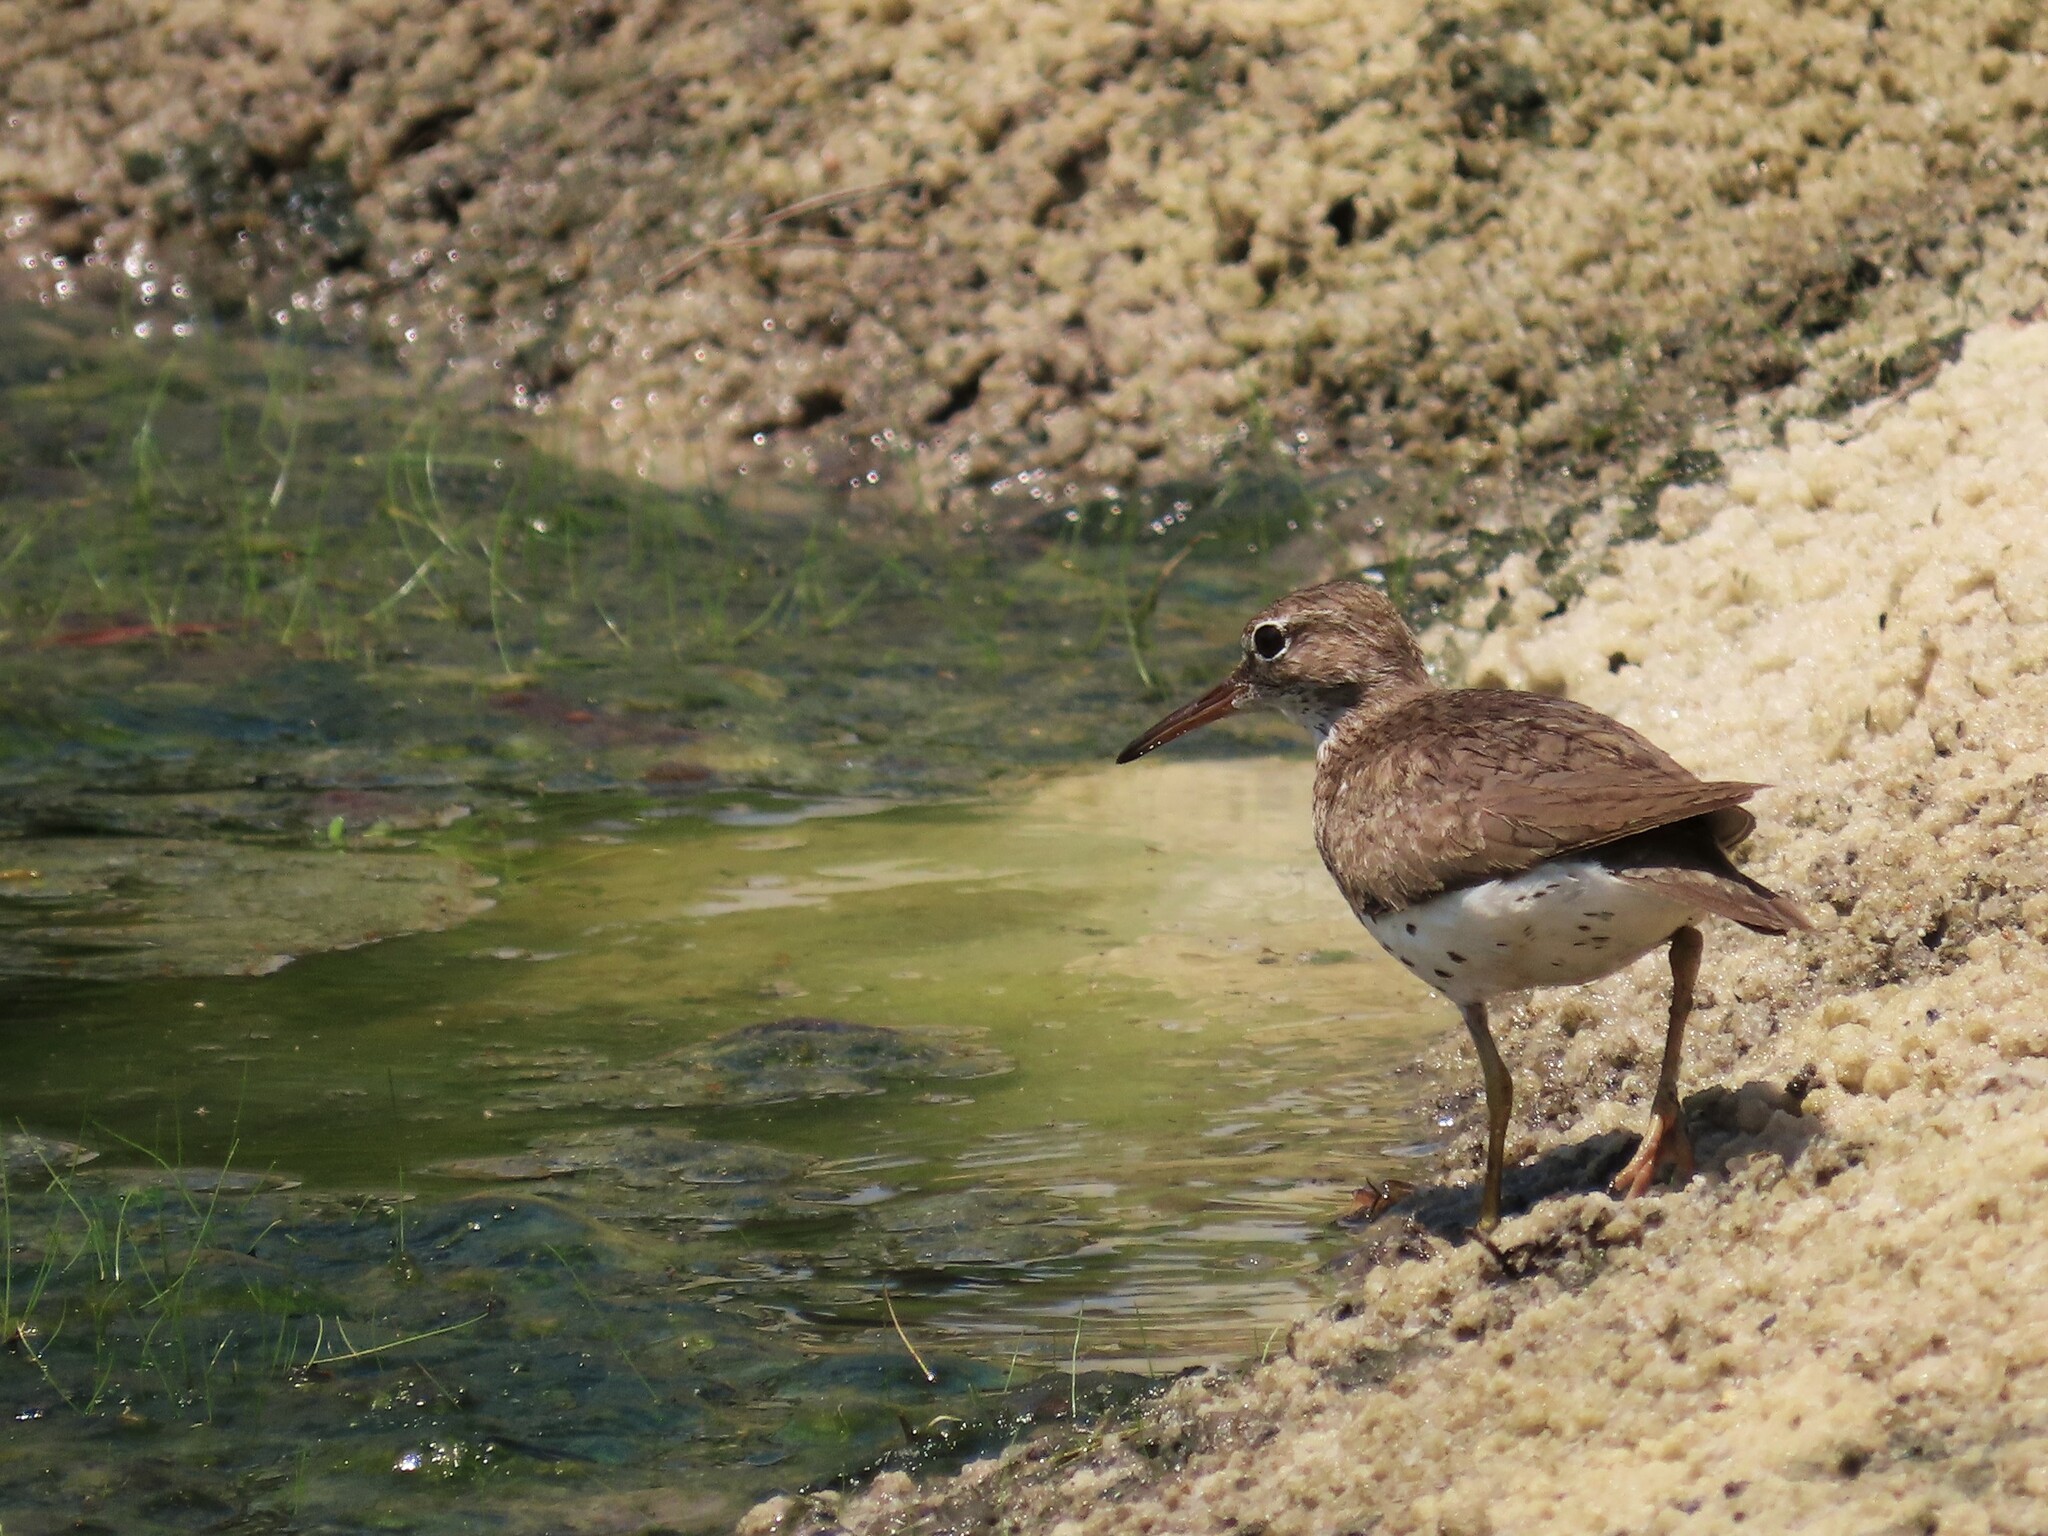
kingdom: Animalia
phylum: Chordata
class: Aves
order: Charadriiformes
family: Scolopacidae
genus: Actitis
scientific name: Actitis macularius
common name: Spotted sandpiper
